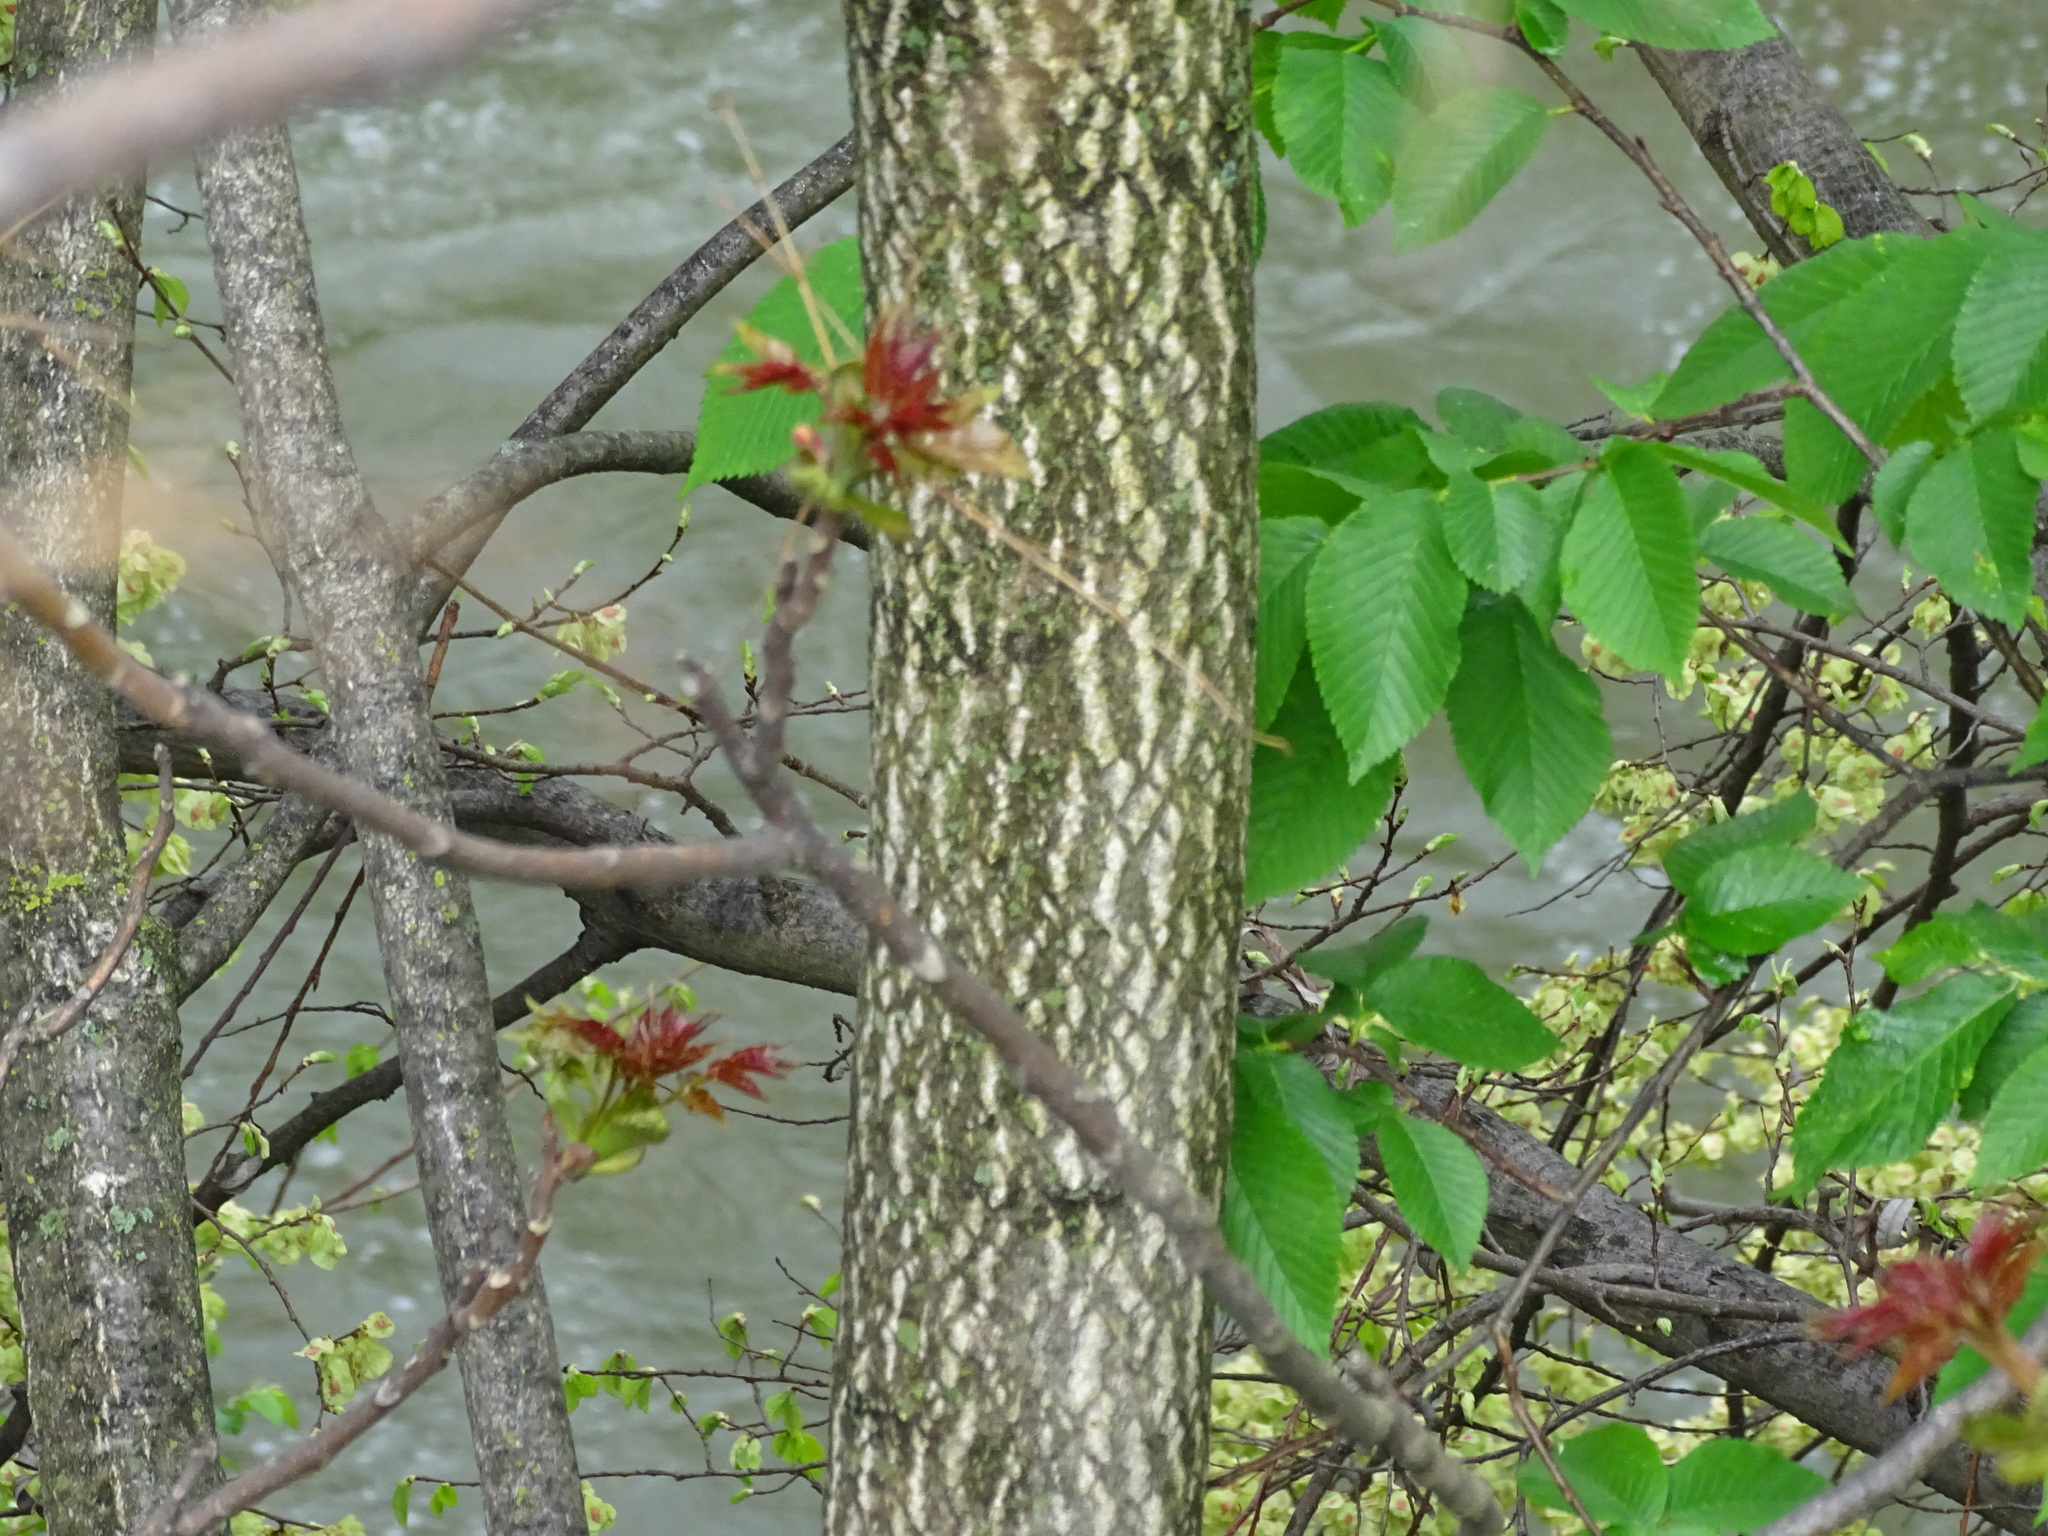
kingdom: Plantae
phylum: Tracheophyta
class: Magnoliopsida
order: Sapindales
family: Simaroubaceae
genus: Ailanthus
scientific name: Ailanthus altissima
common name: Tree-of-heaven
